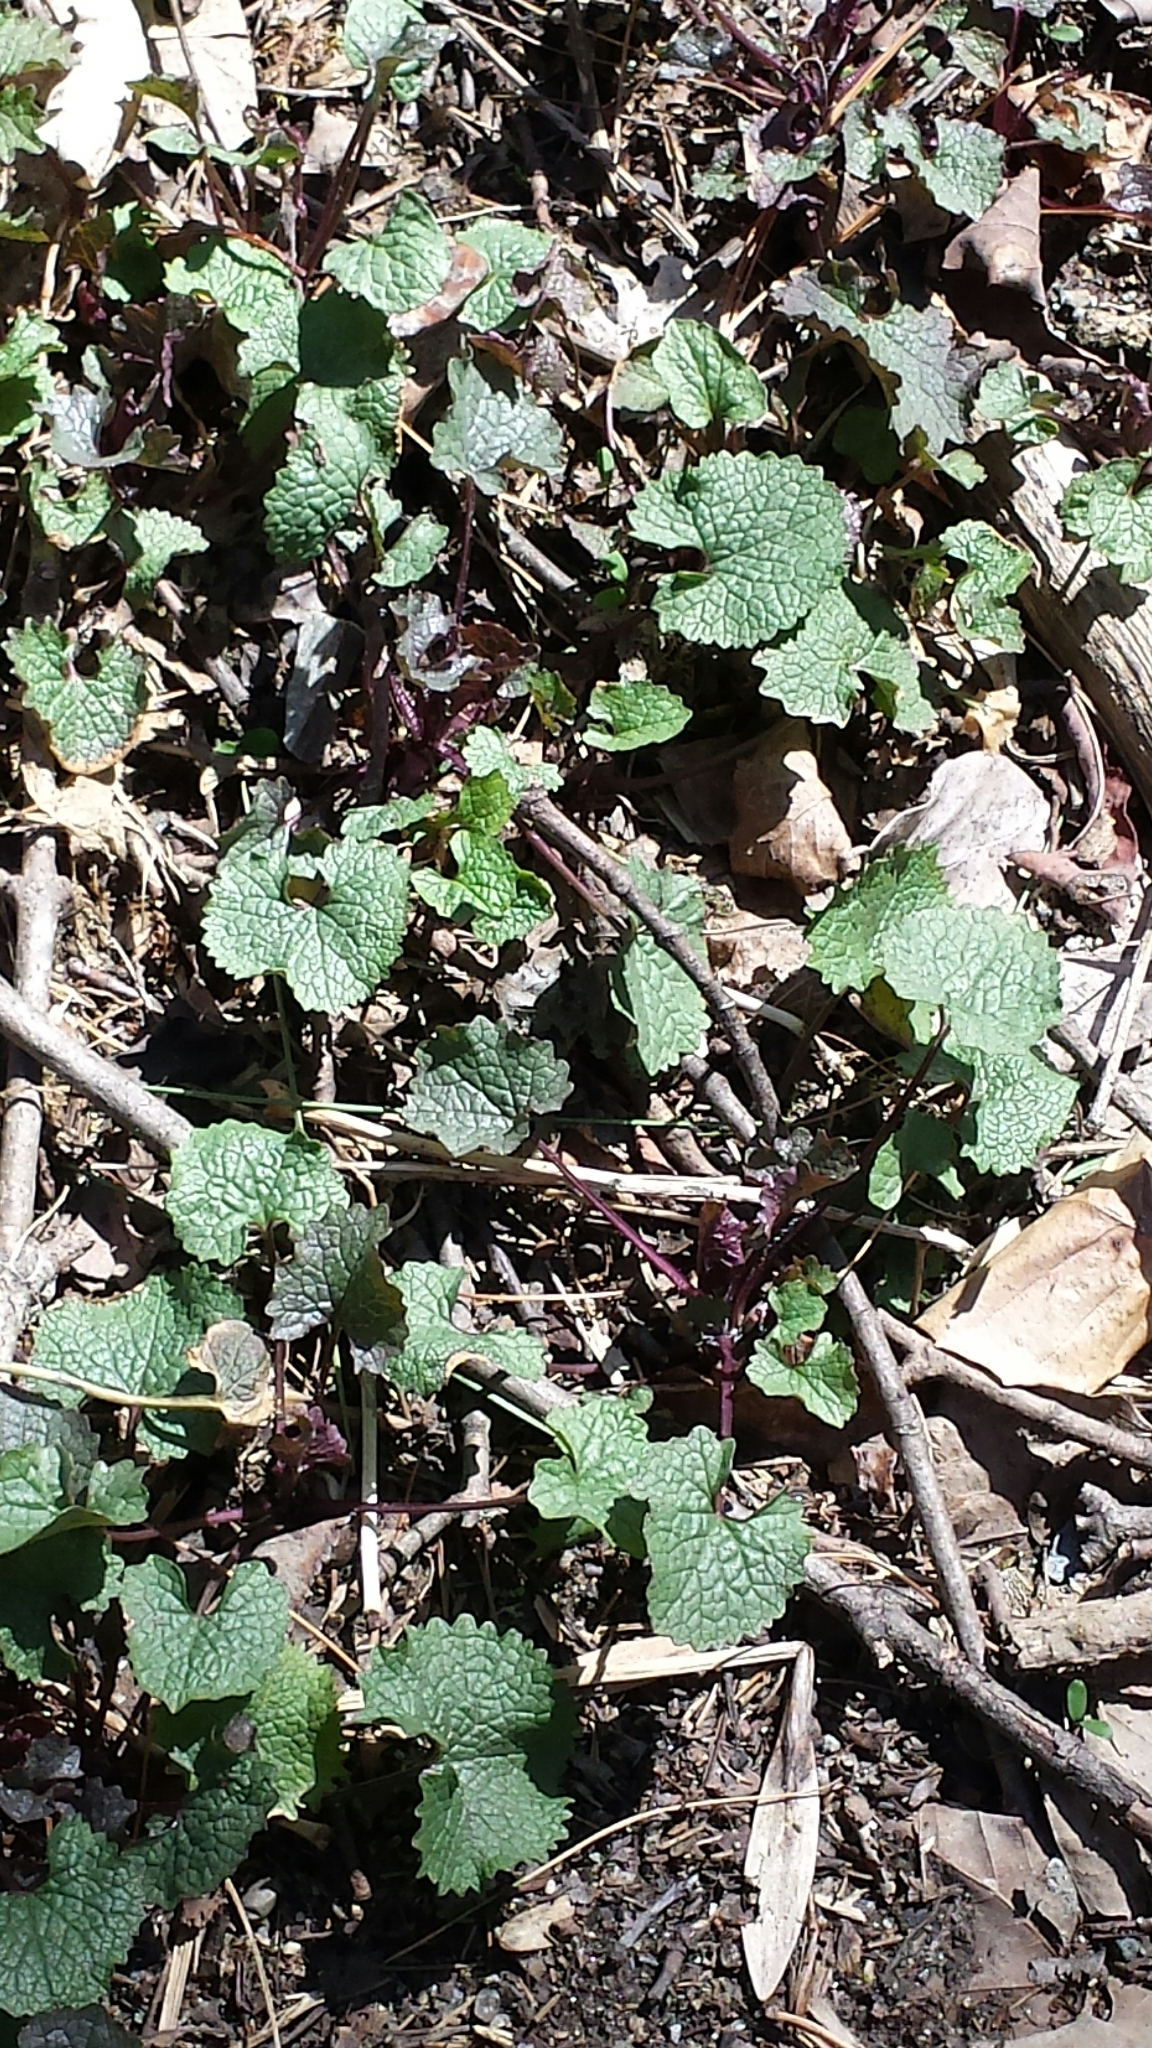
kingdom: Plantae
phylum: Tracheophyta
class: Magnoliopsida
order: Brassicales
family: Brassicaceae
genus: Alliaria
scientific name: Alliaria petiolata
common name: Garlic mustard
